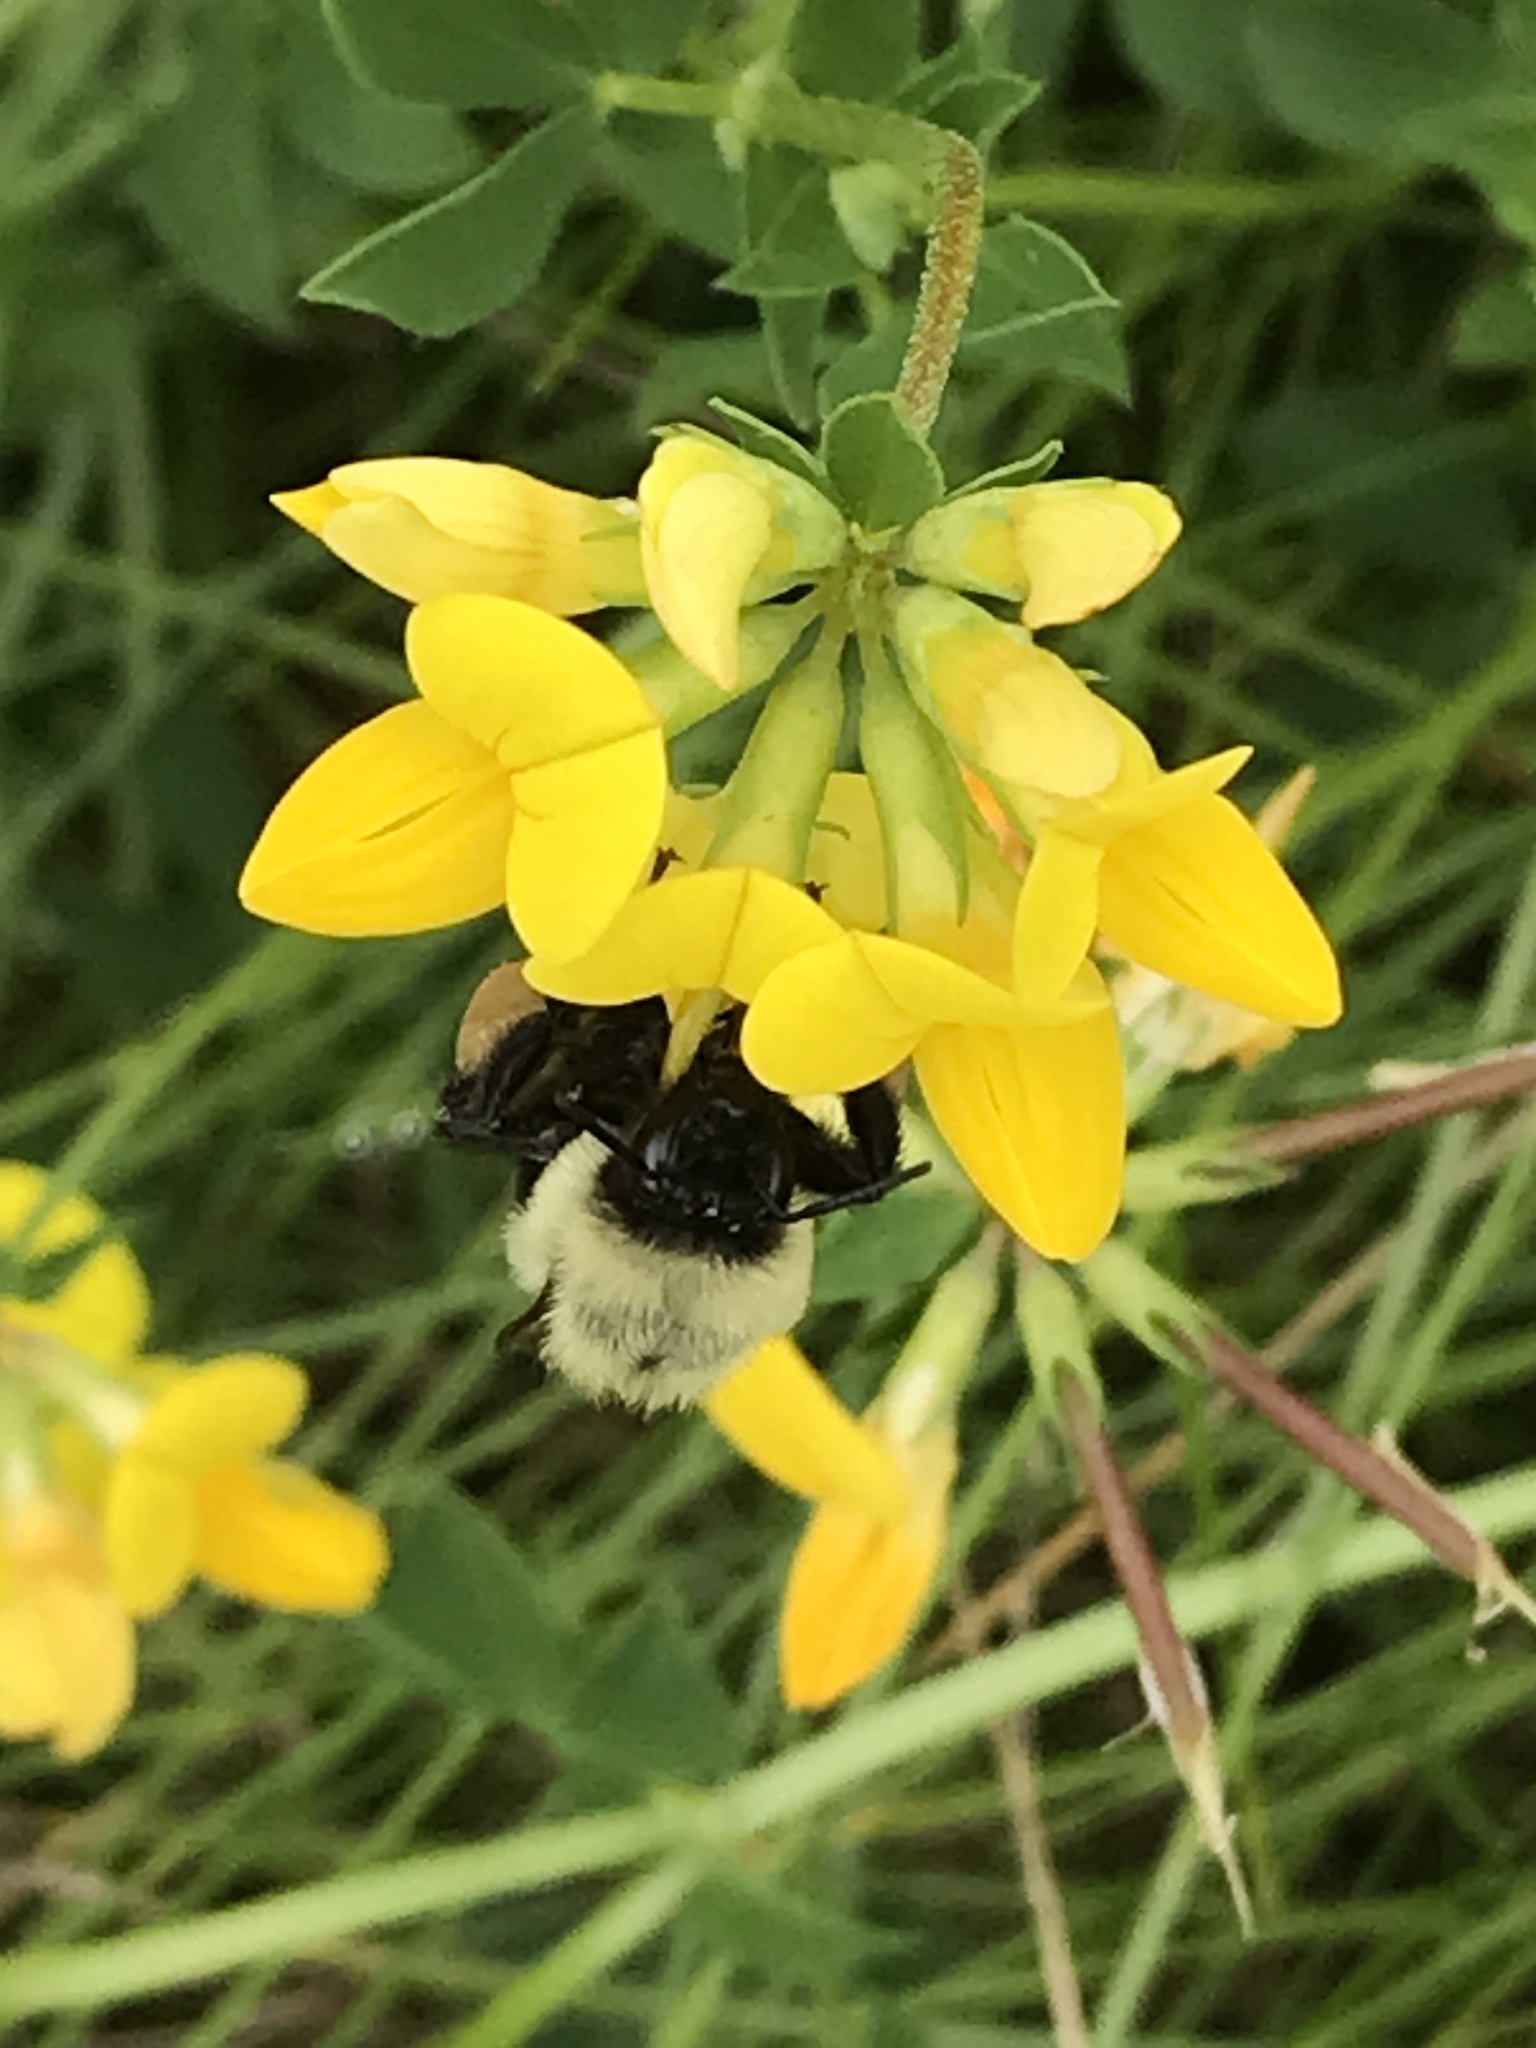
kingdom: Animalia
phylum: Arthropoda
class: Insecta
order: Hymenoptera
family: Apidae
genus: Bombus
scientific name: Bombus impatiens
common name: Common eastern bumble bee
